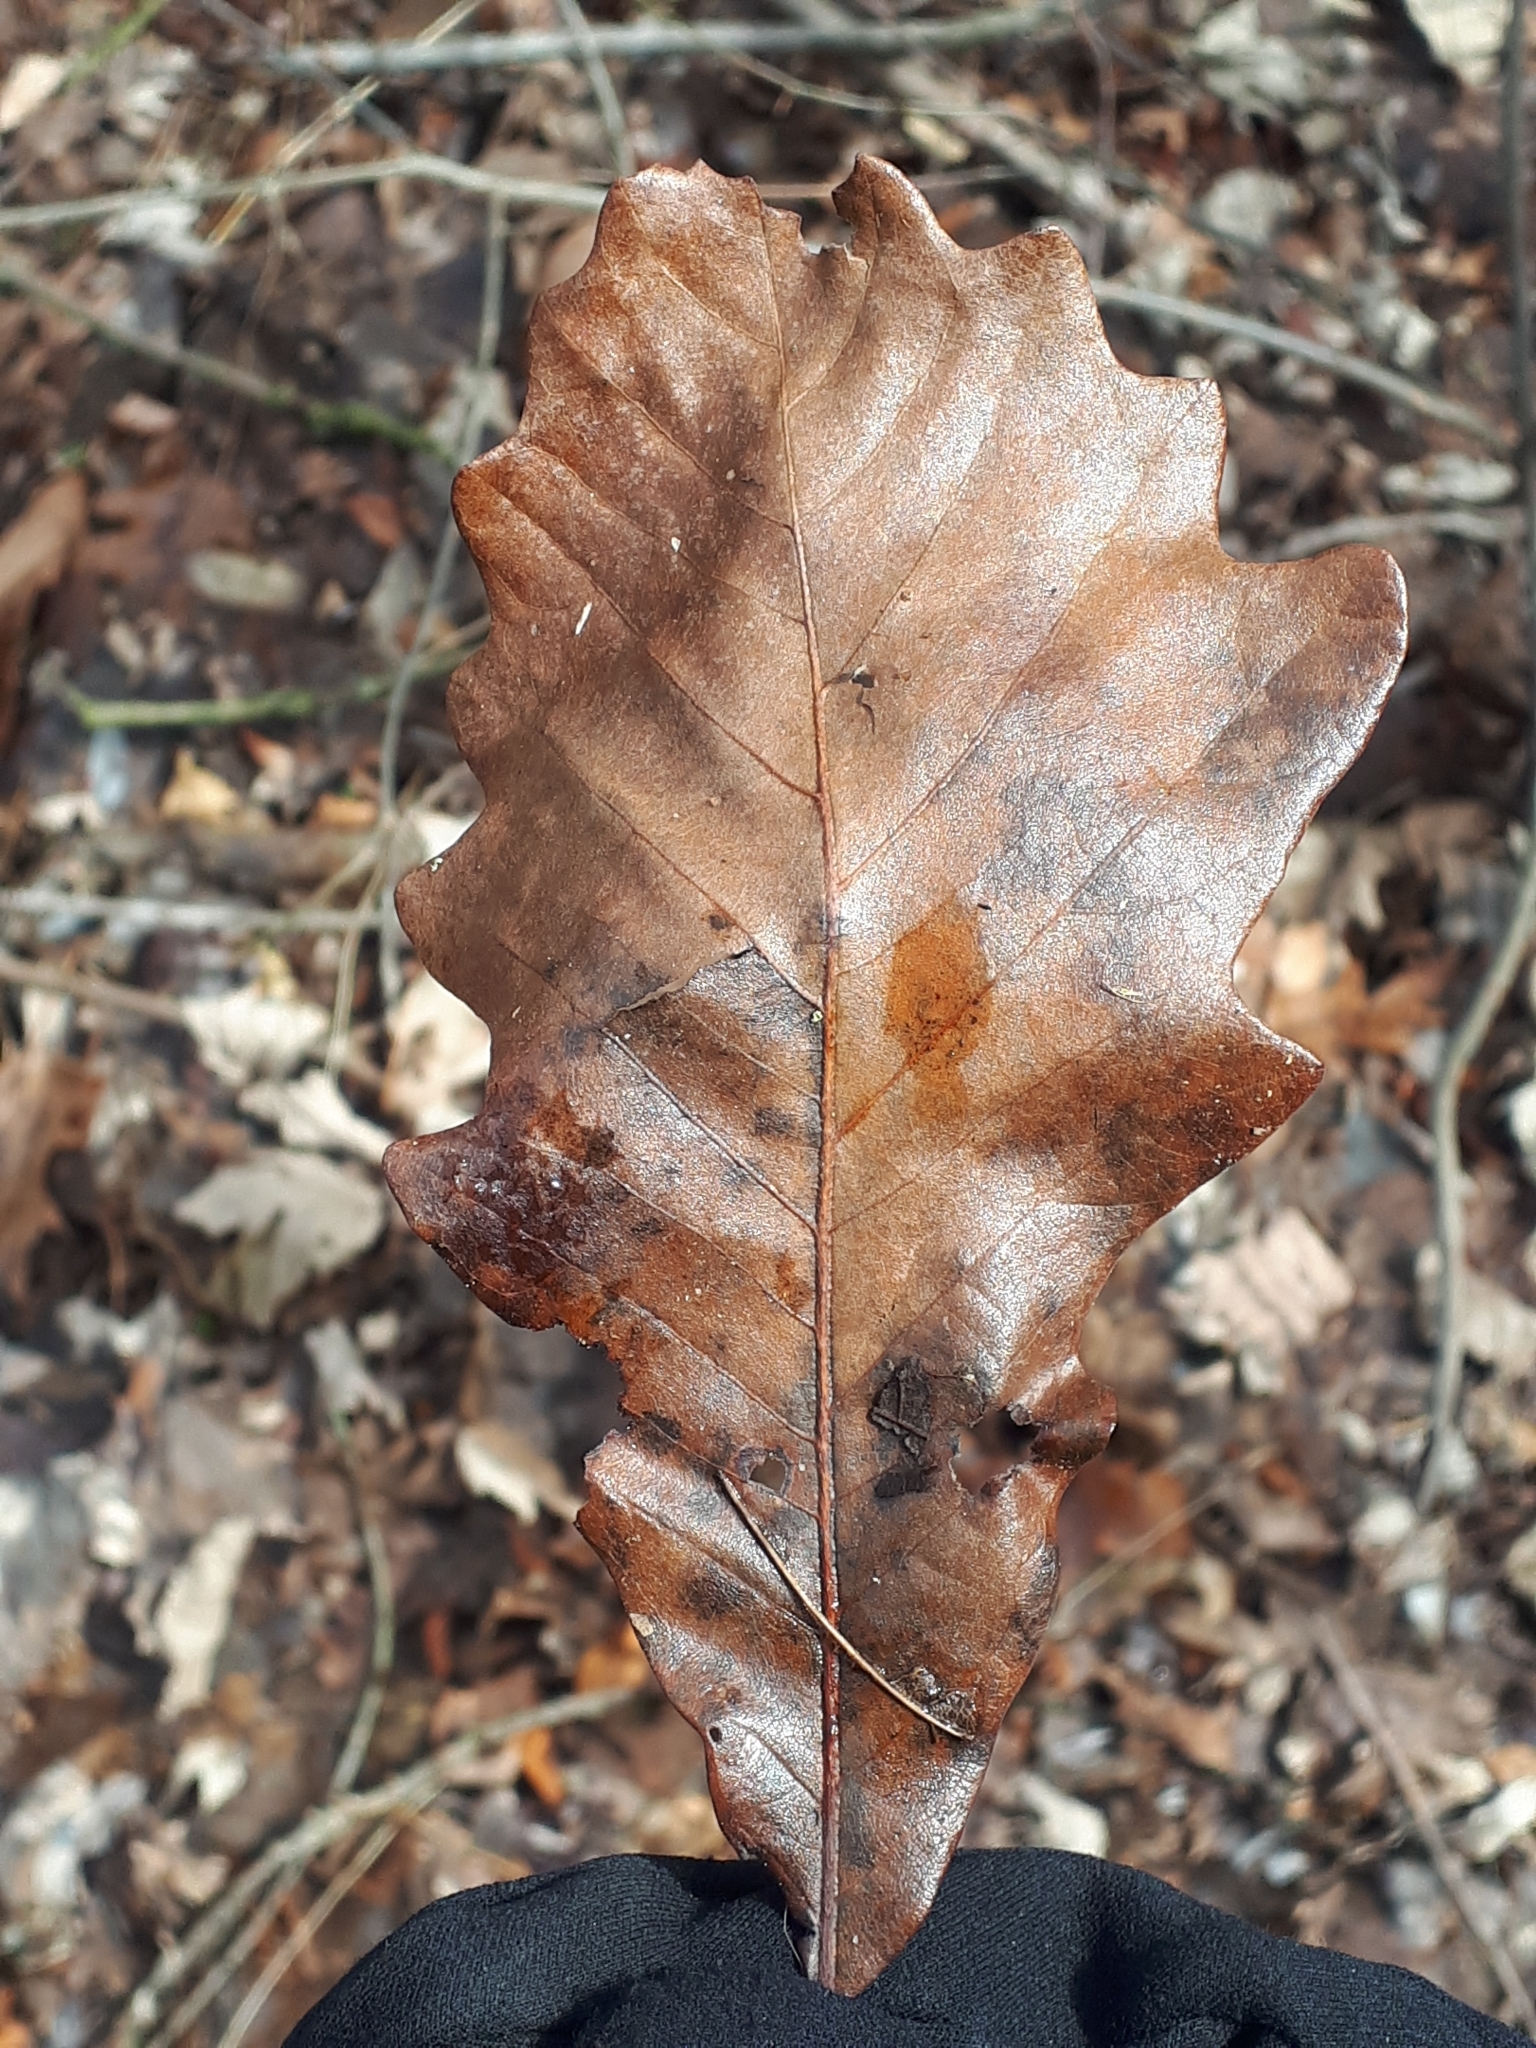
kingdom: Plantae
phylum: Tracheophyta
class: Magnoliopsida
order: Fagales
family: Fagaceae
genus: Quercus
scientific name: Quercus bicolor
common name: Swamp white oak
